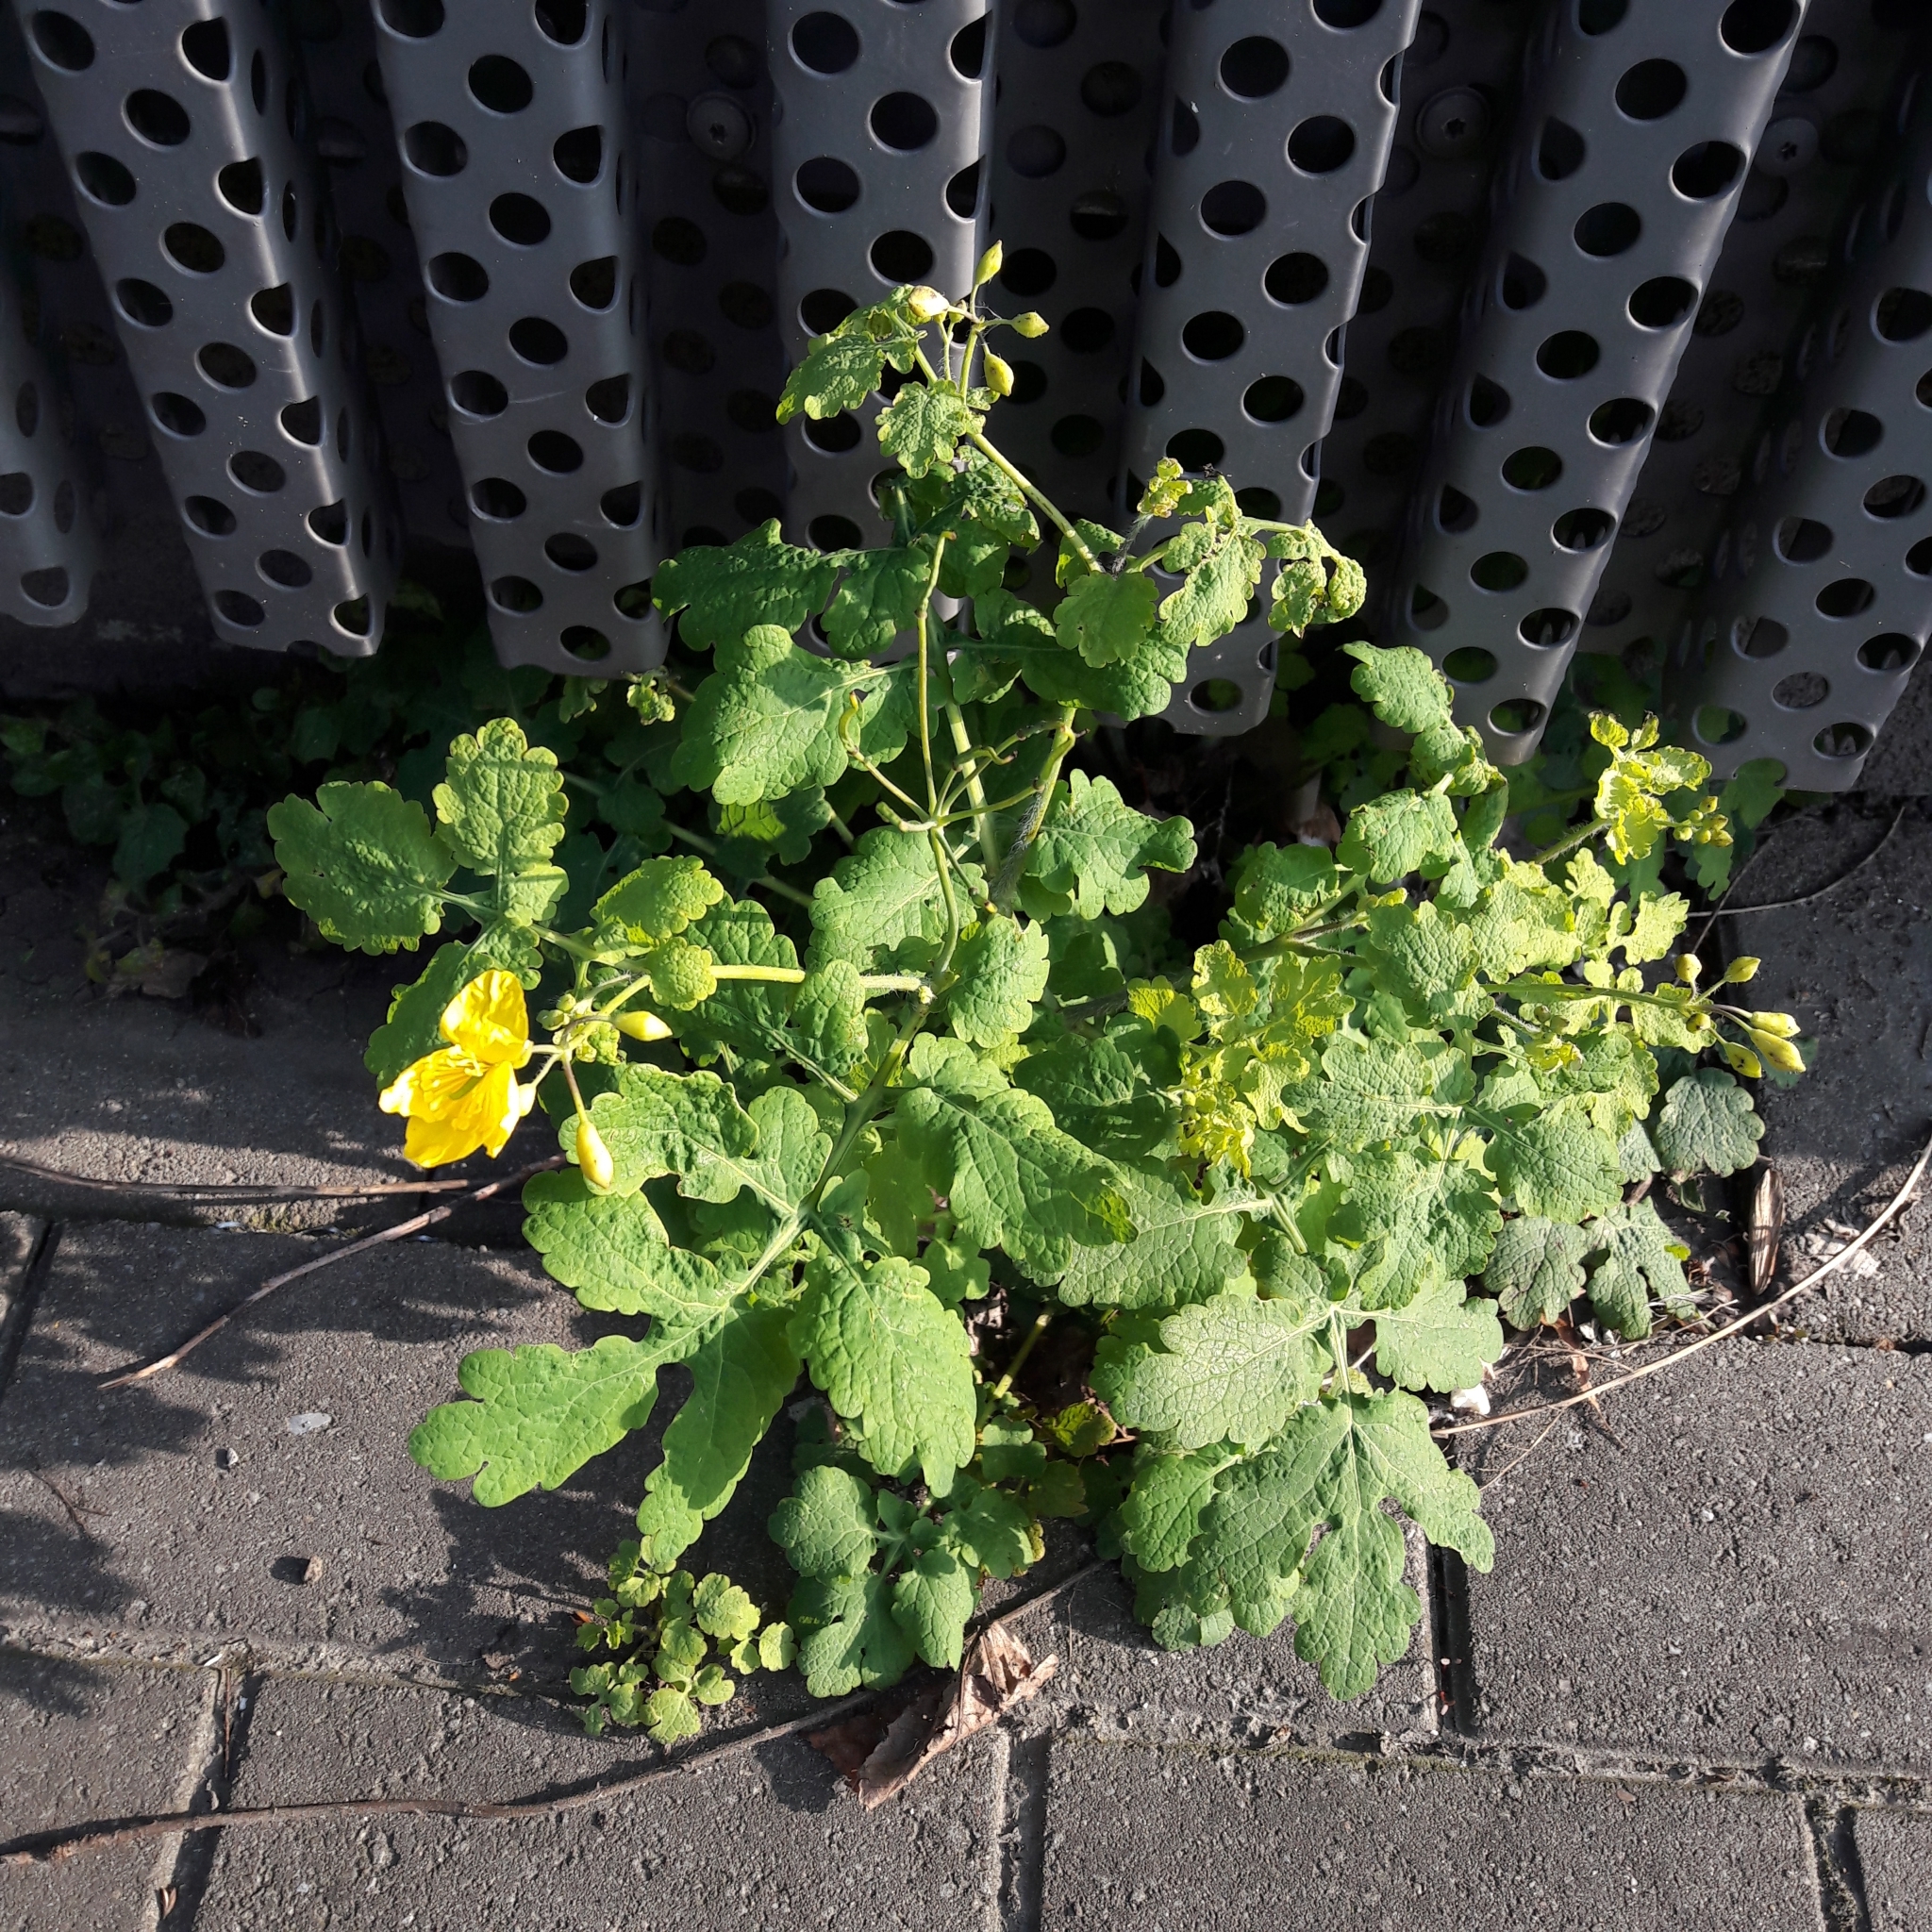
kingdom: Plantae
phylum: Tracheophyta
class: Magnoliopsida
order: Ranunculales
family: Papaveraceae
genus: Chelidonium
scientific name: Chelidonium majus
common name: Greater celandine
